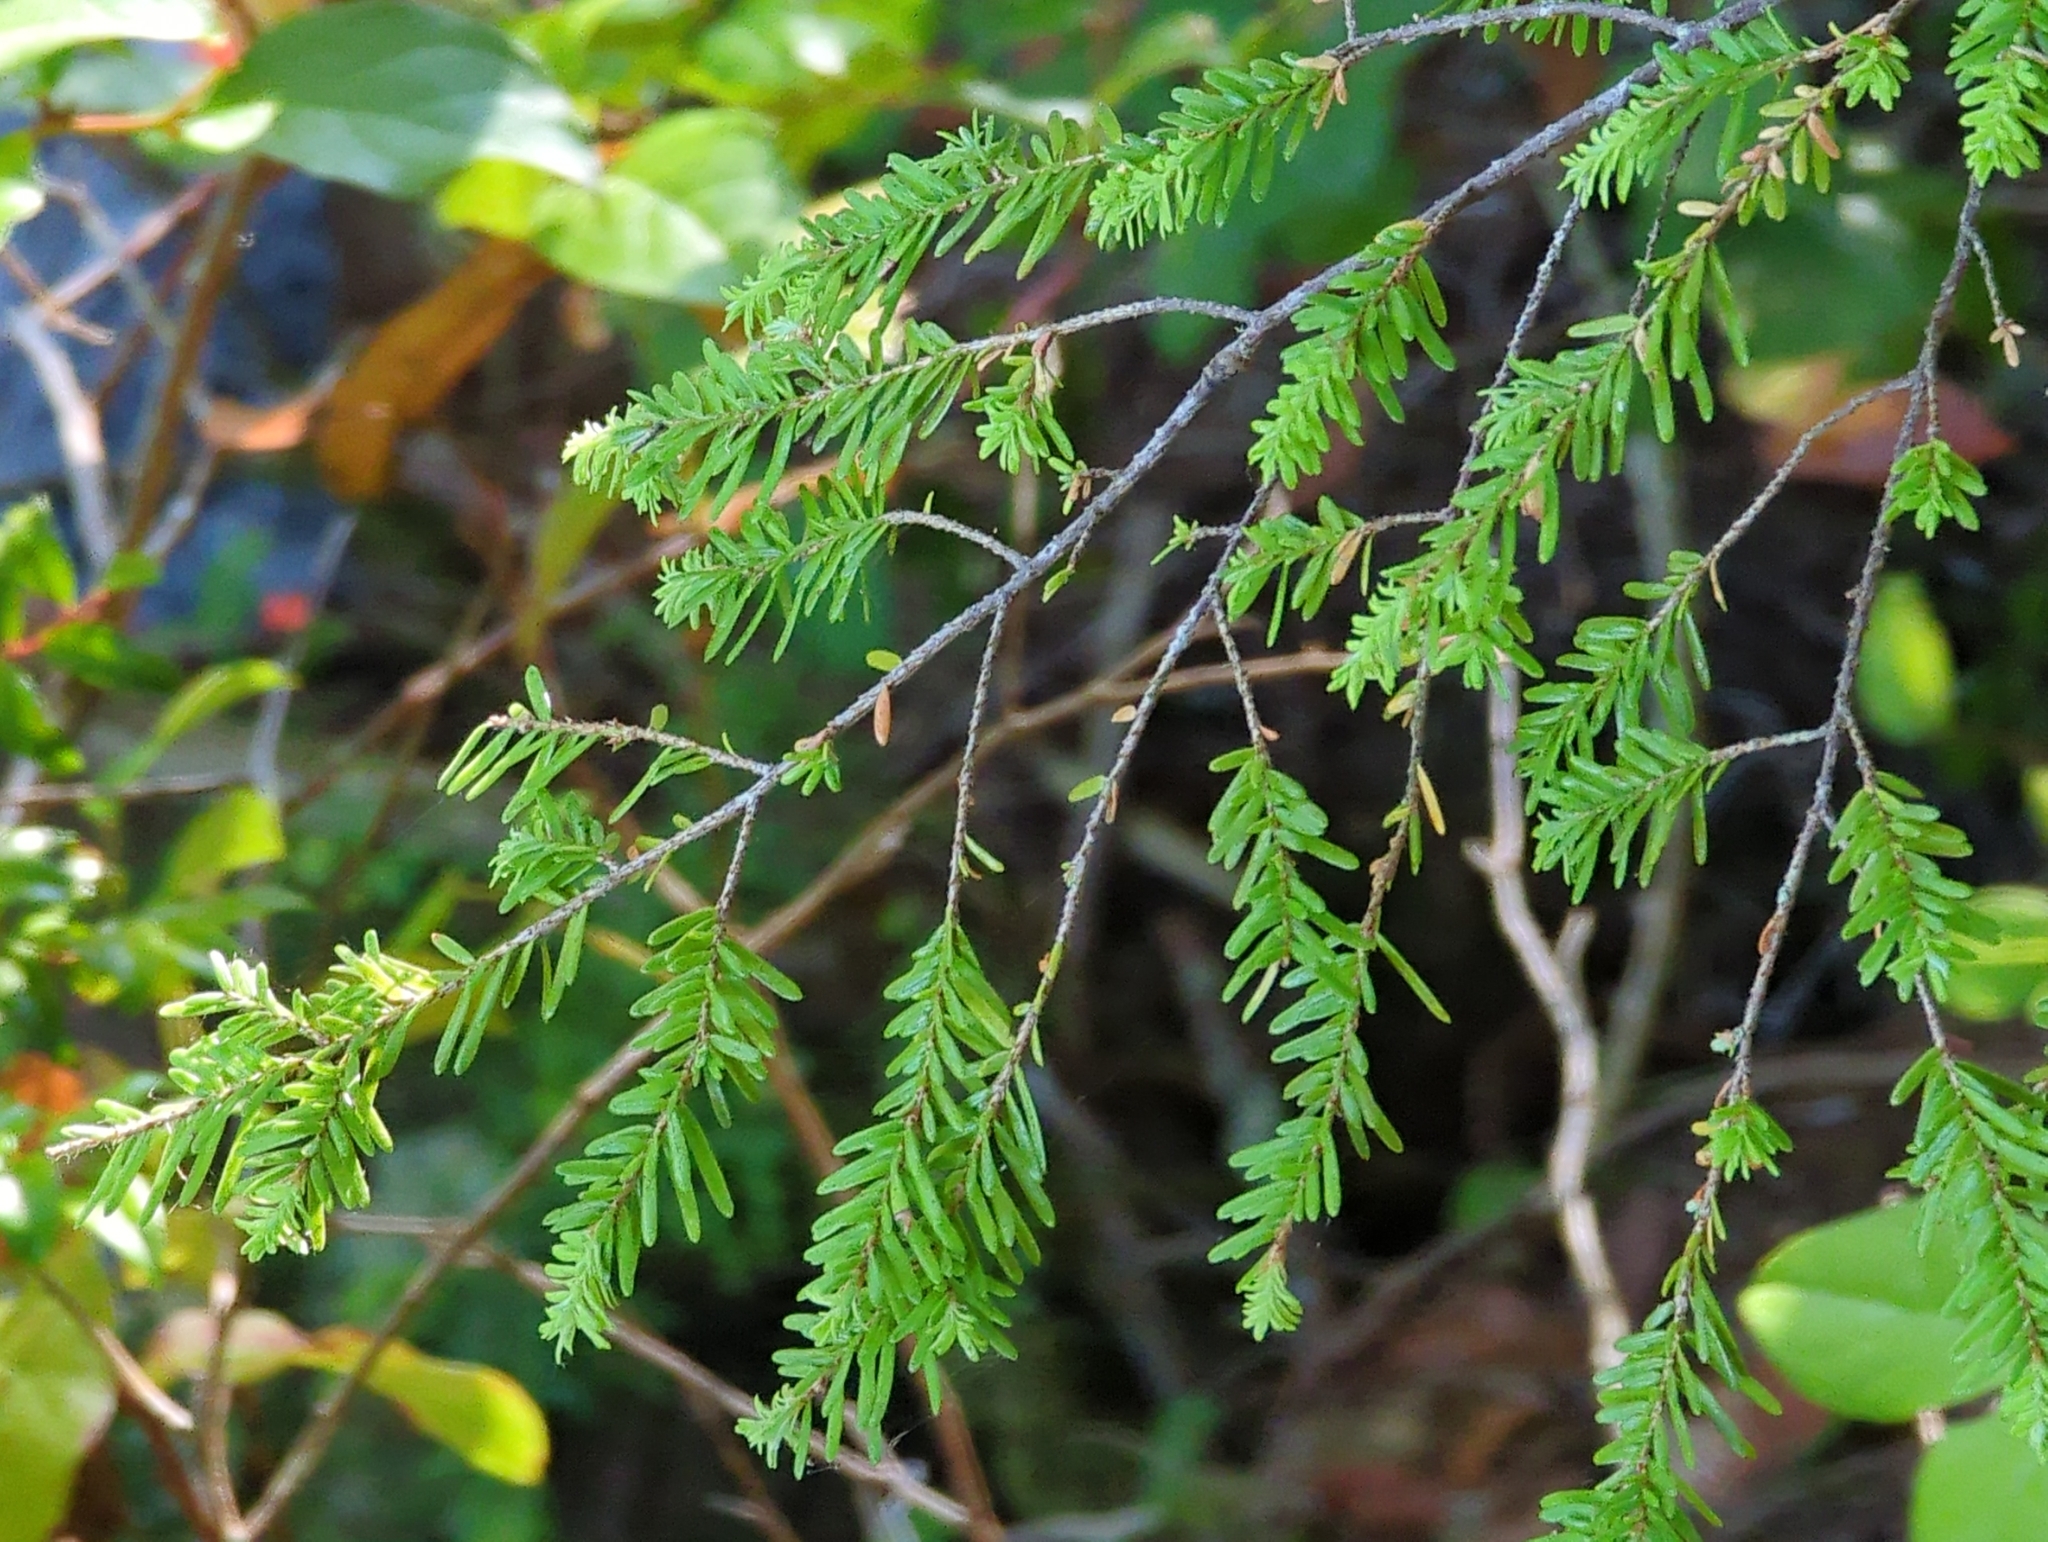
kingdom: Plantae
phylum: Tracheophyta
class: Pinopsida
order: Pinales
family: Pinaceae
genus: Tsuga
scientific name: Tsuga heterophylla
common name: Western hemlock
